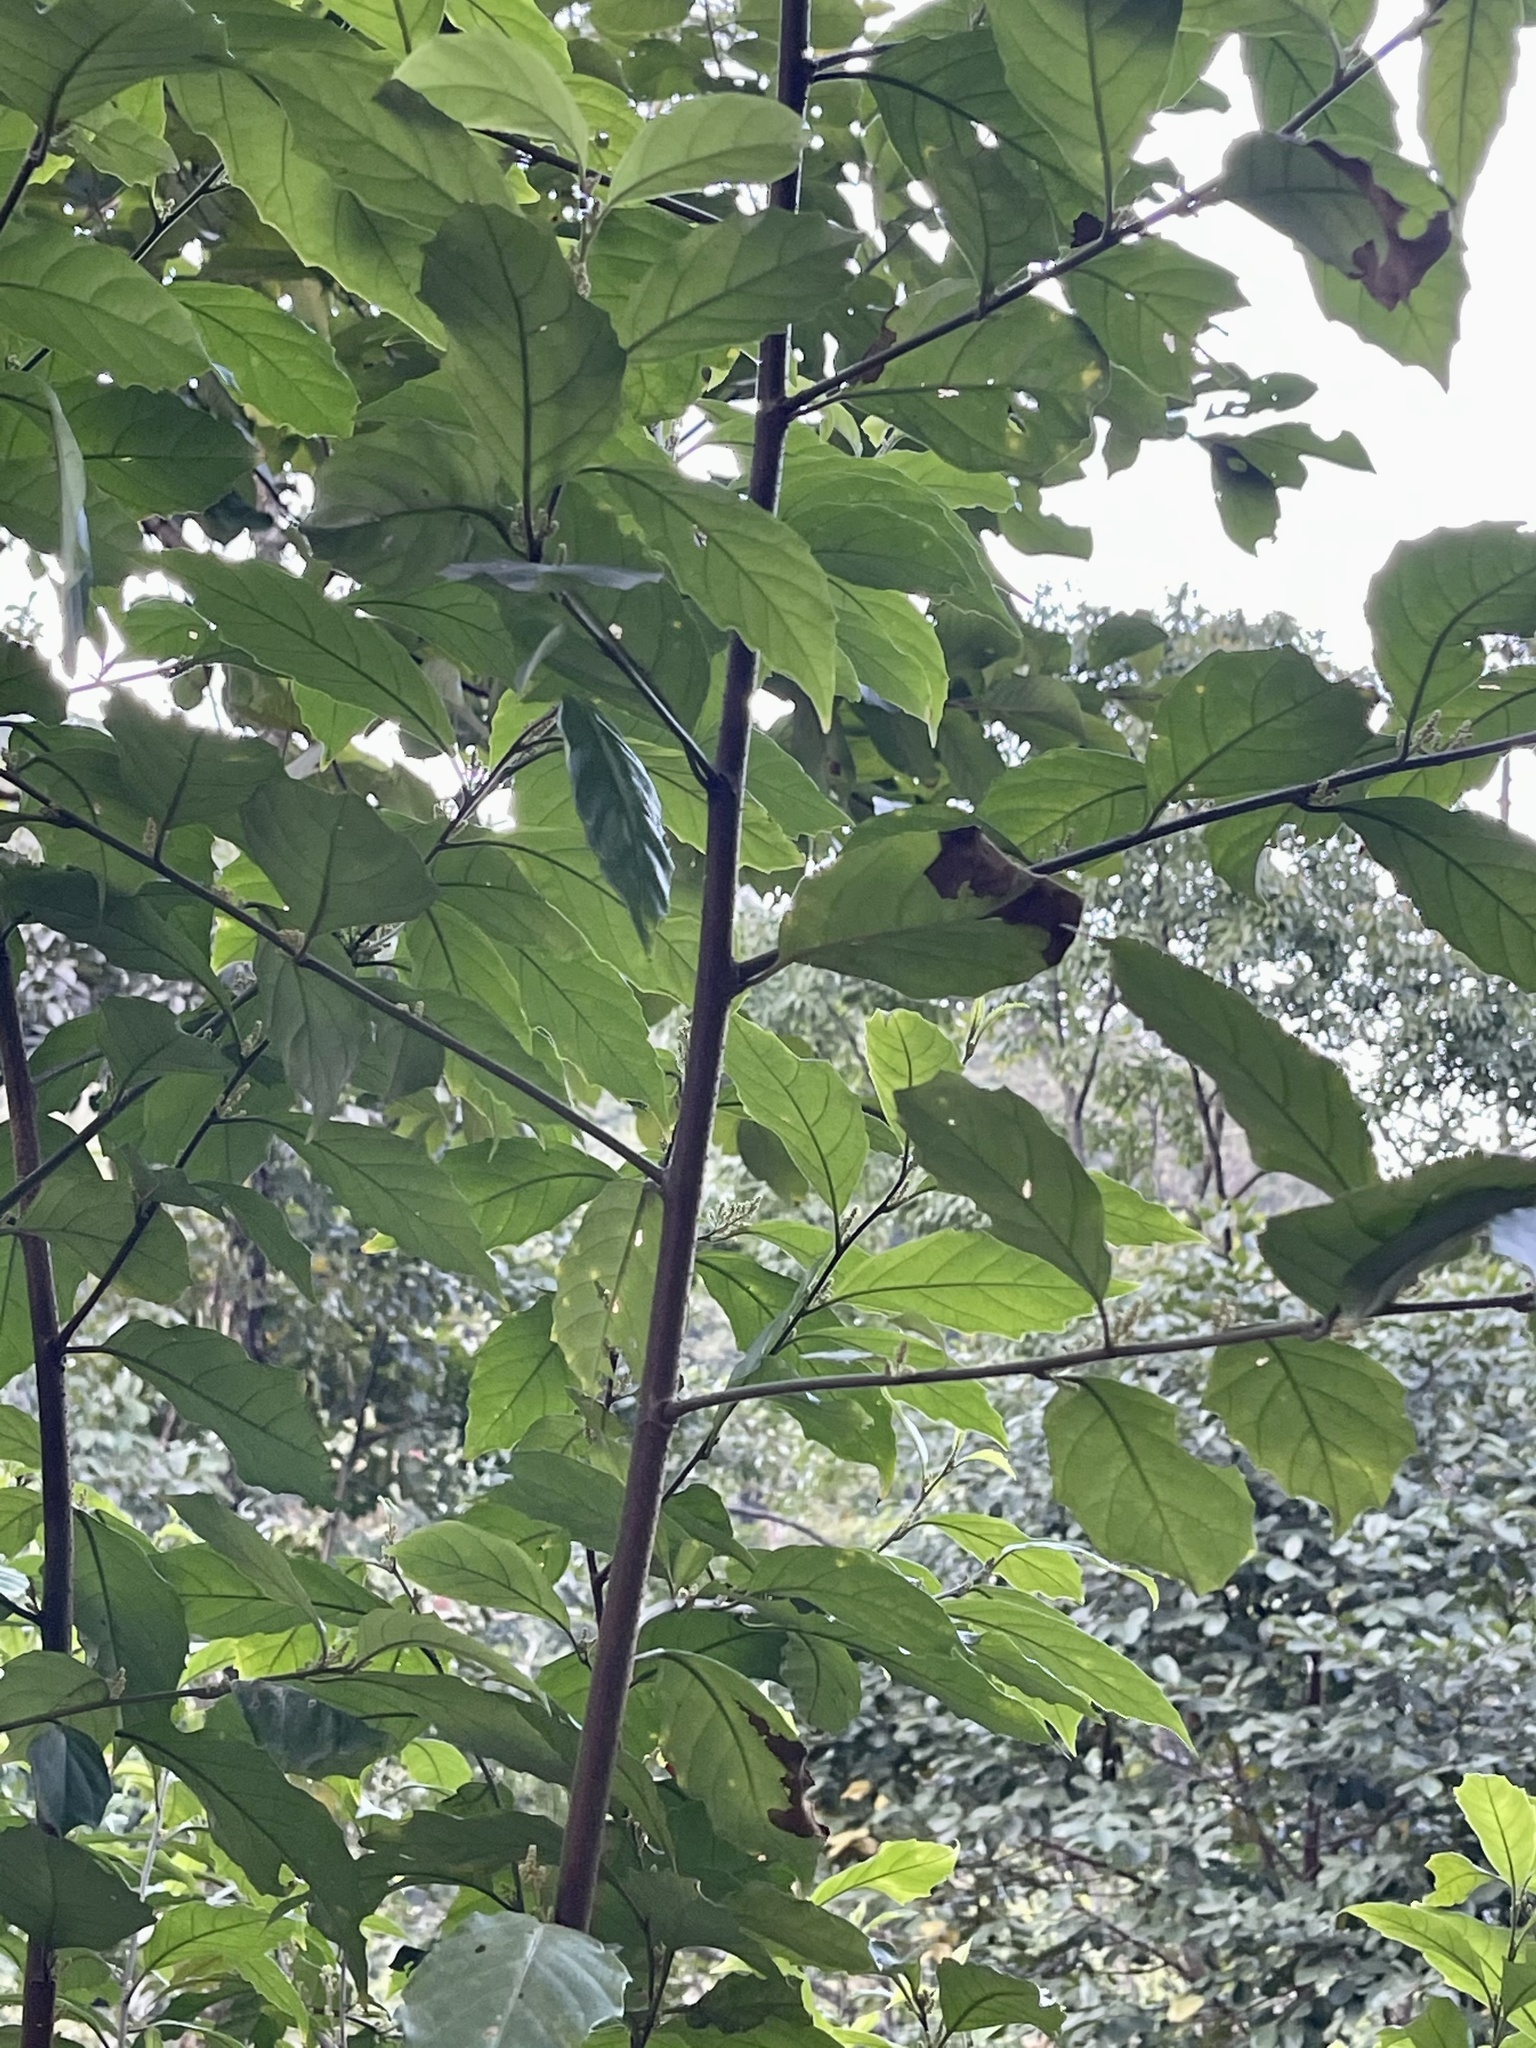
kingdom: Plantae
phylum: Tracheophyta
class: Magnoliopsida
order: Ericales
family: Primulaceae
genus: Maesa
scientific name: Maesa perlaria
